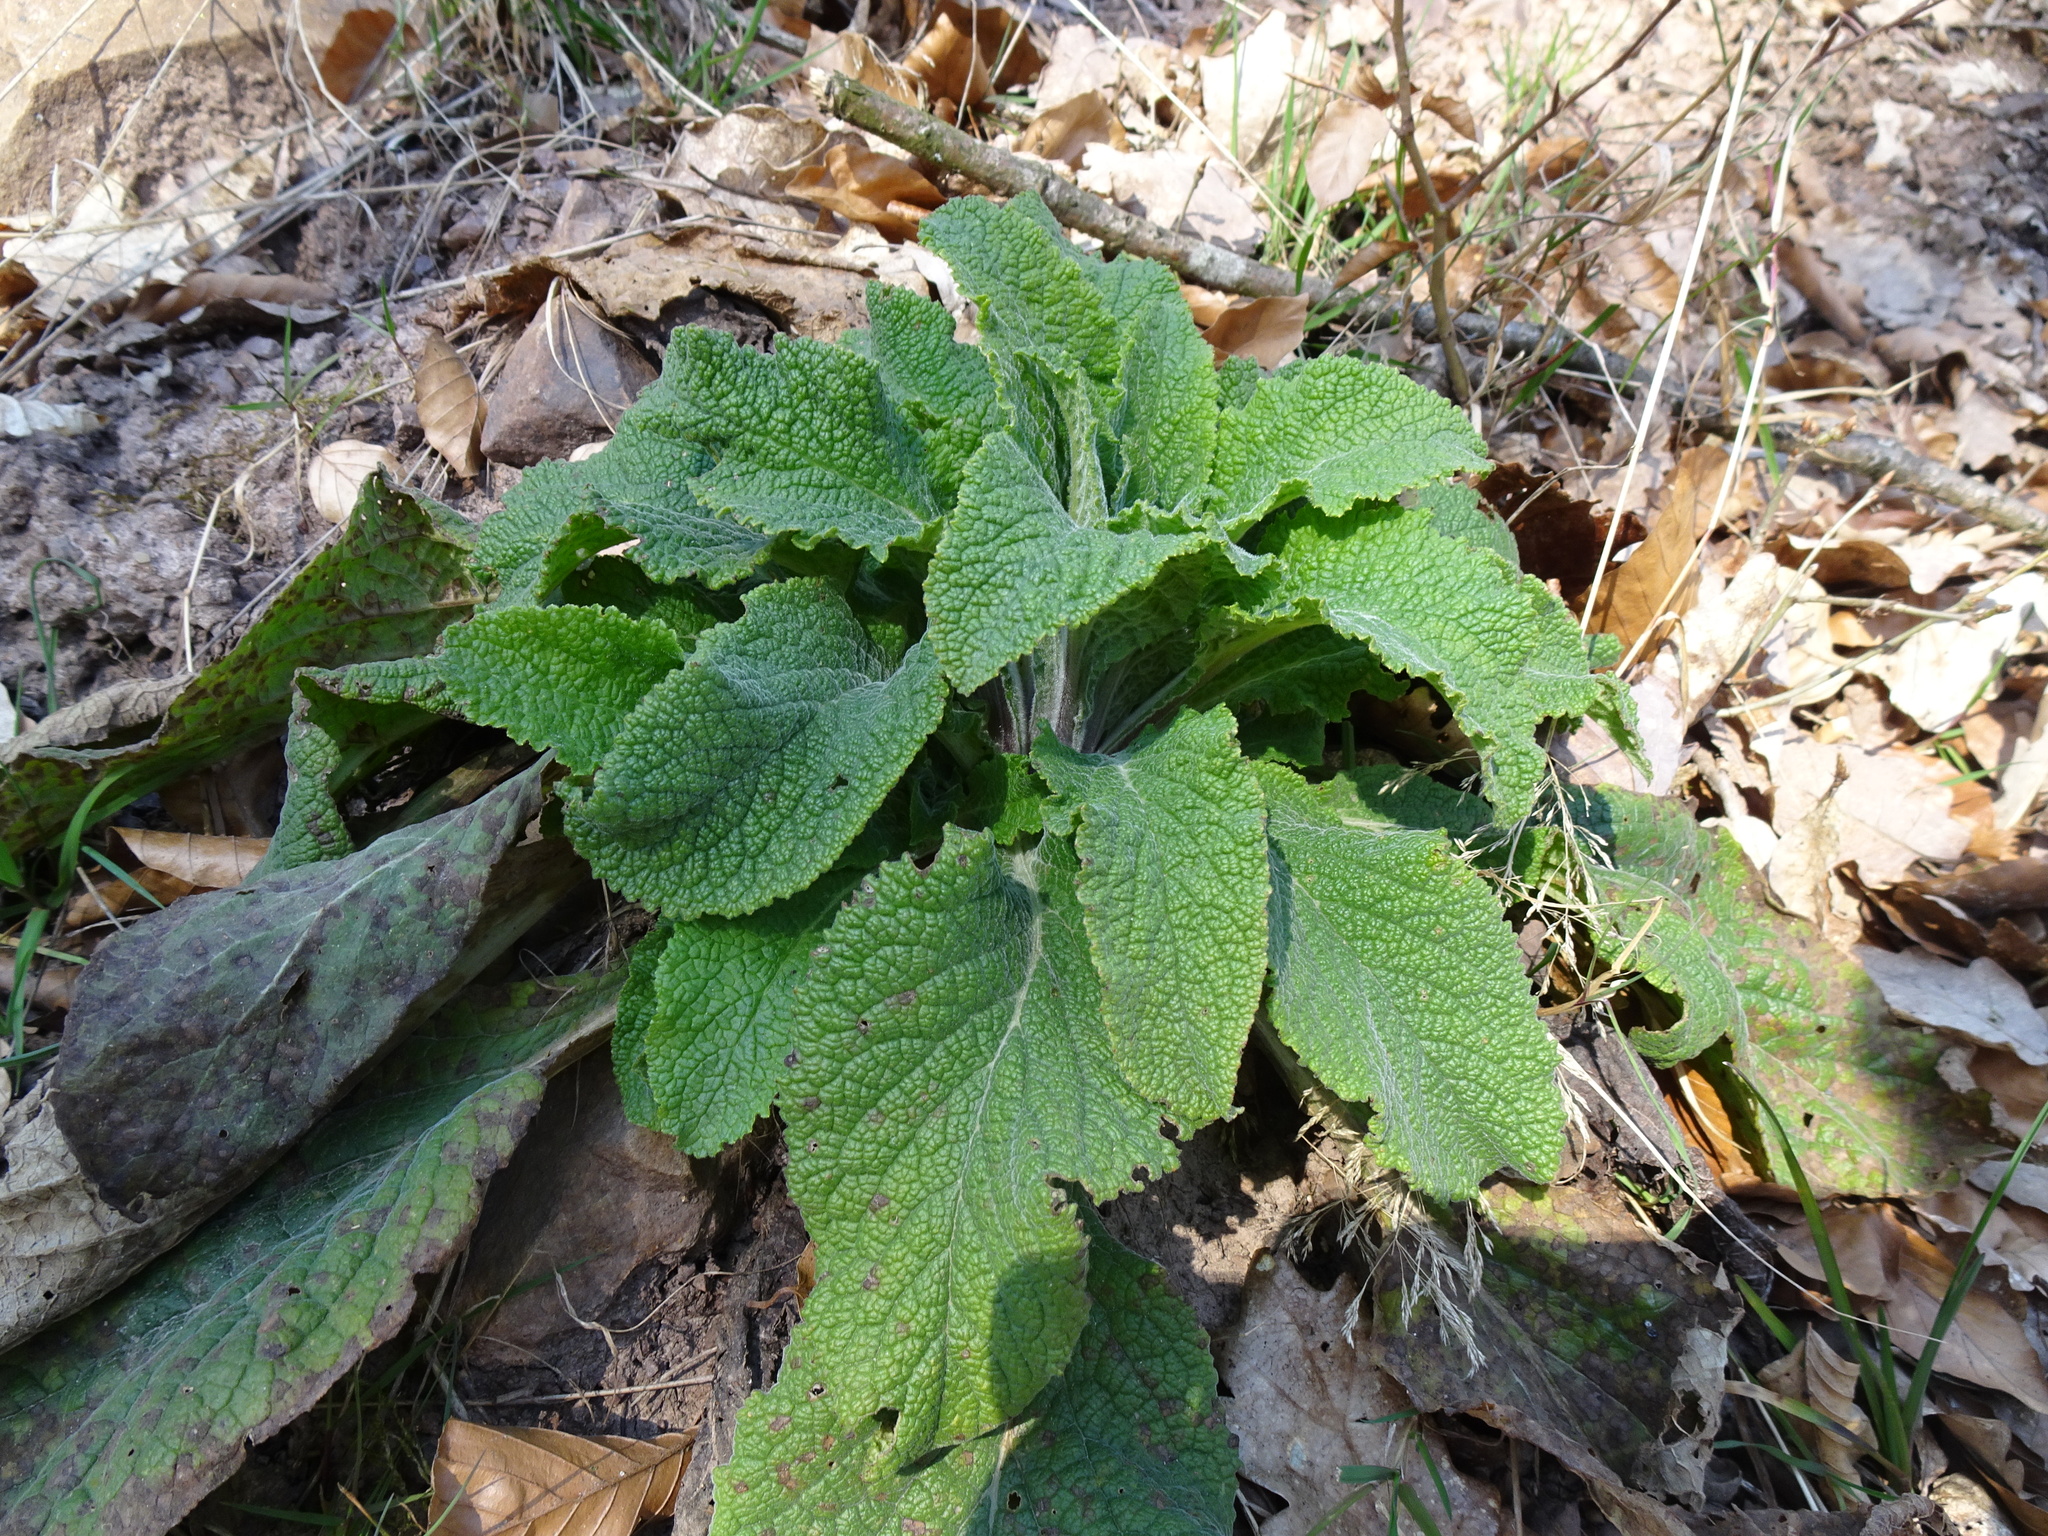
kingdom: Plantae
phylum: Tracheophyta
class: Magnoliopsida
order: Lamiales
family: Plantaginaceae
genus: Digitalis
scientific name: Digitalis purpurea
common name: Foxglove
